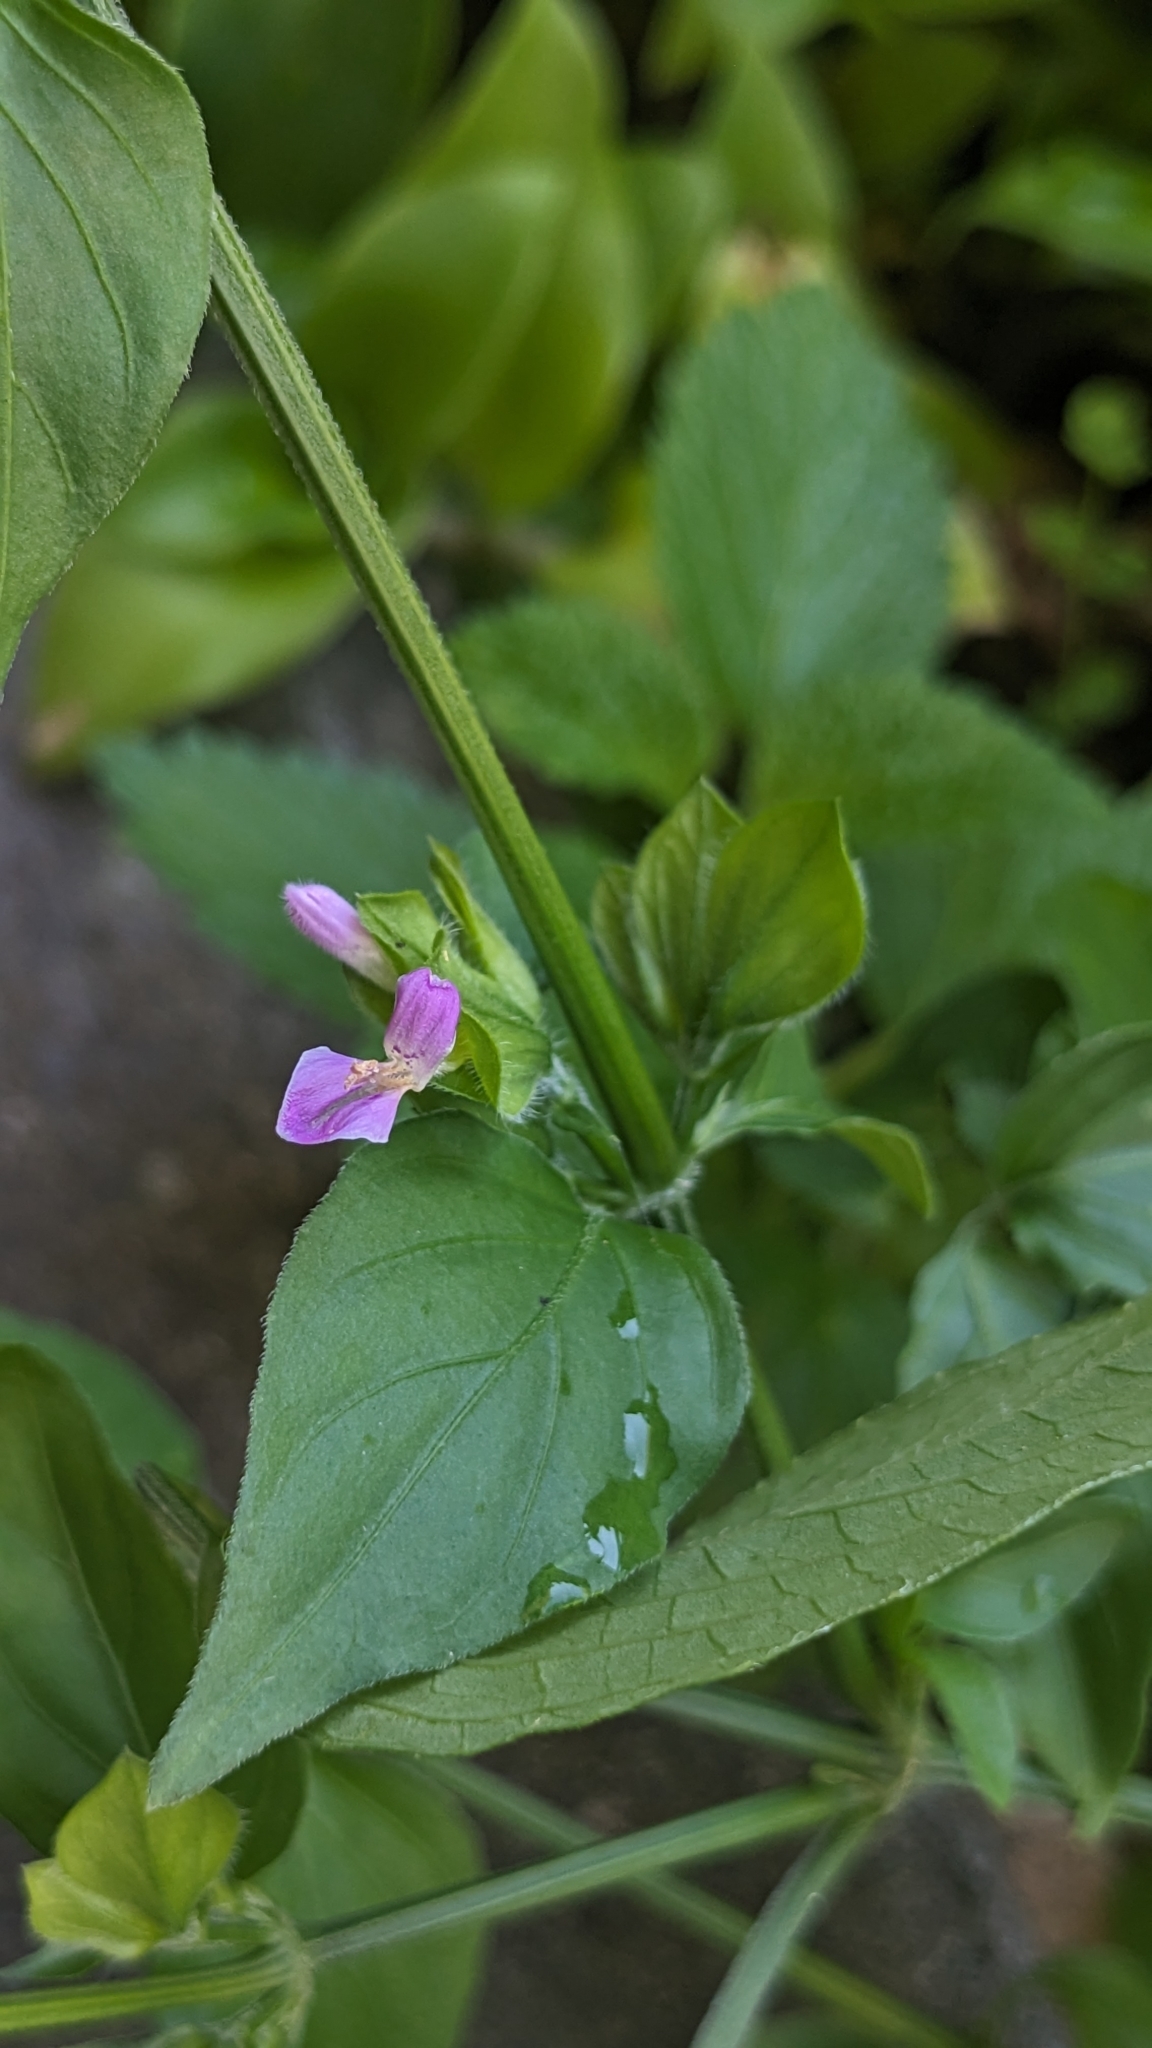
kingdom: Plantae
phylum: Tracheophyta
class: Magnoliopsida
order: Lamiales
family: Acanthaceae
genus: Dicliptera
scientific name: Dicliptera chinensis
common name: Chinese foldwing
